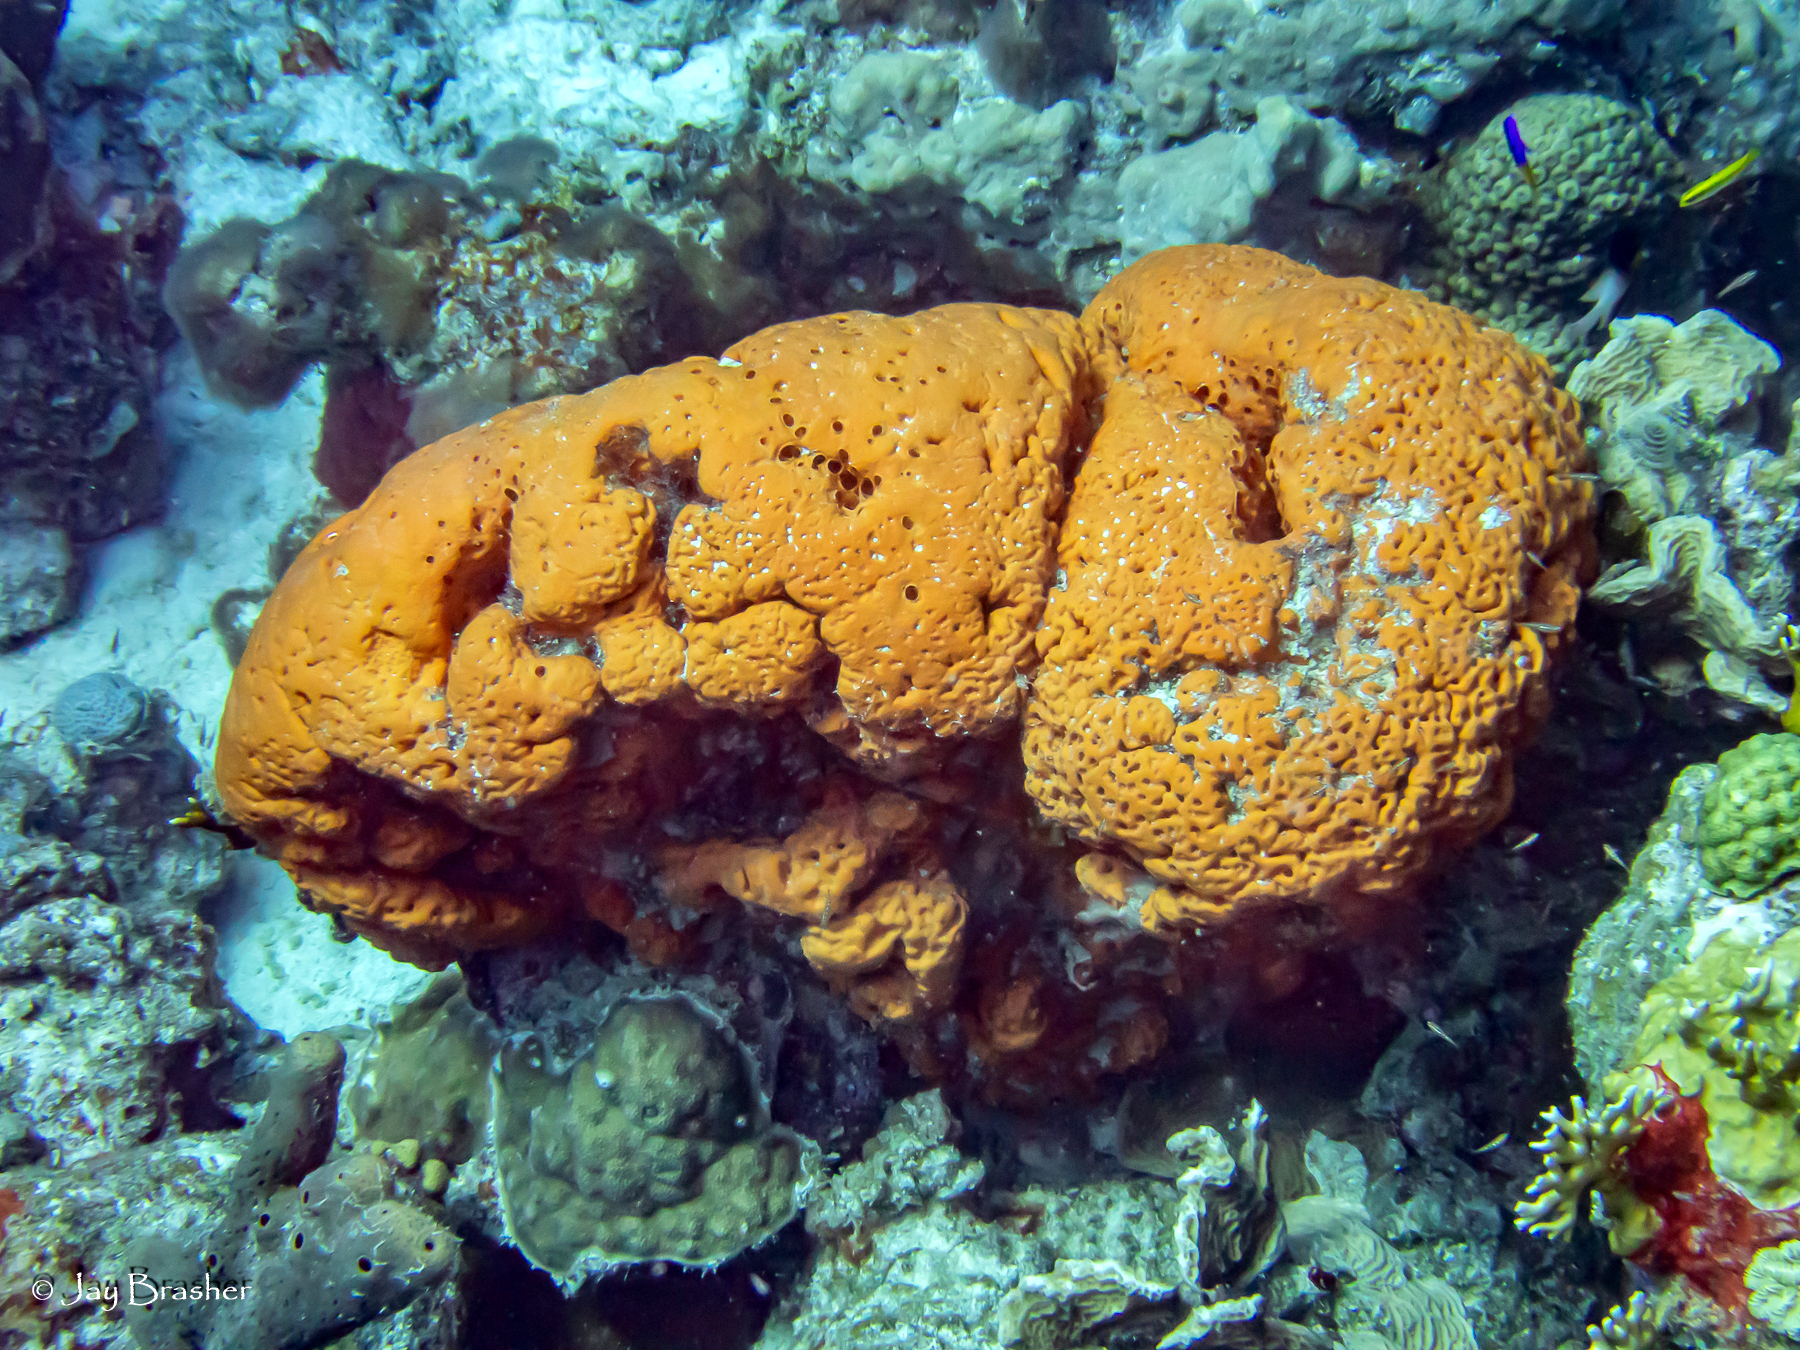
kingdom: Animalia
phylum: Porifera
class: Demospongiae
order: Agelasida
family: Agelasidae
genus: Agelas
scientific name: Agelas clathrodes
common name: Orange elephant ear sponge
